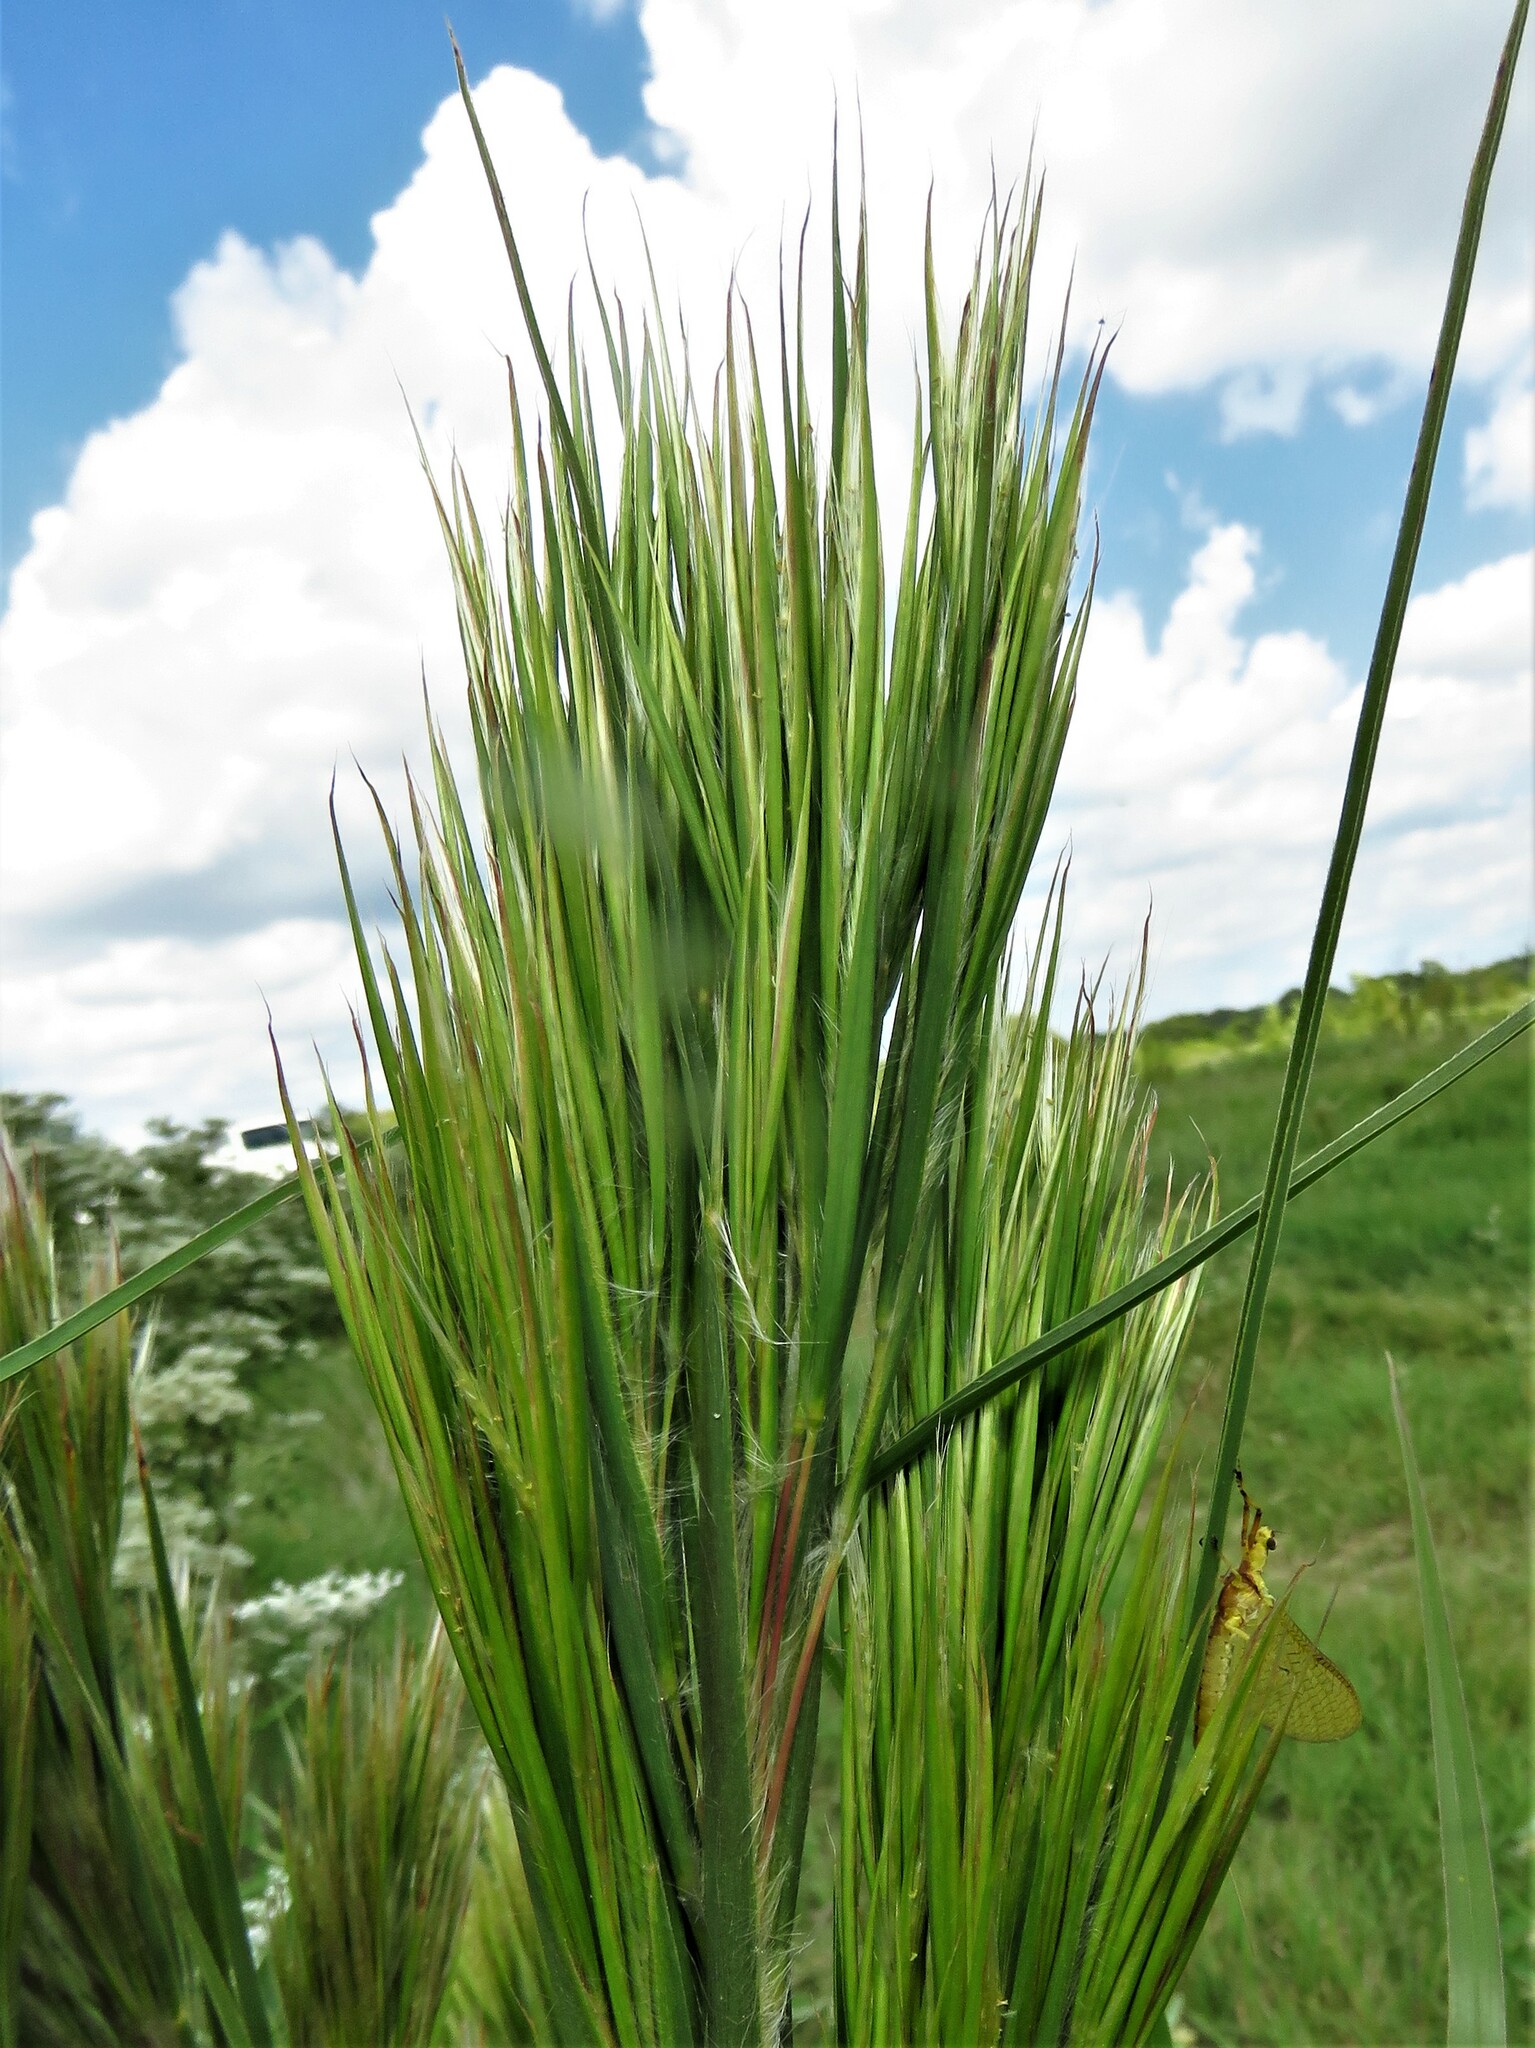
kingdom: Plantae
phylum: Tracheophyta
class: Liliopsida
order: Poales
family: Poaceae
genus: Andropogon
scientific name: Andropogon tenuispatheus
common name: Bushy bluestem
